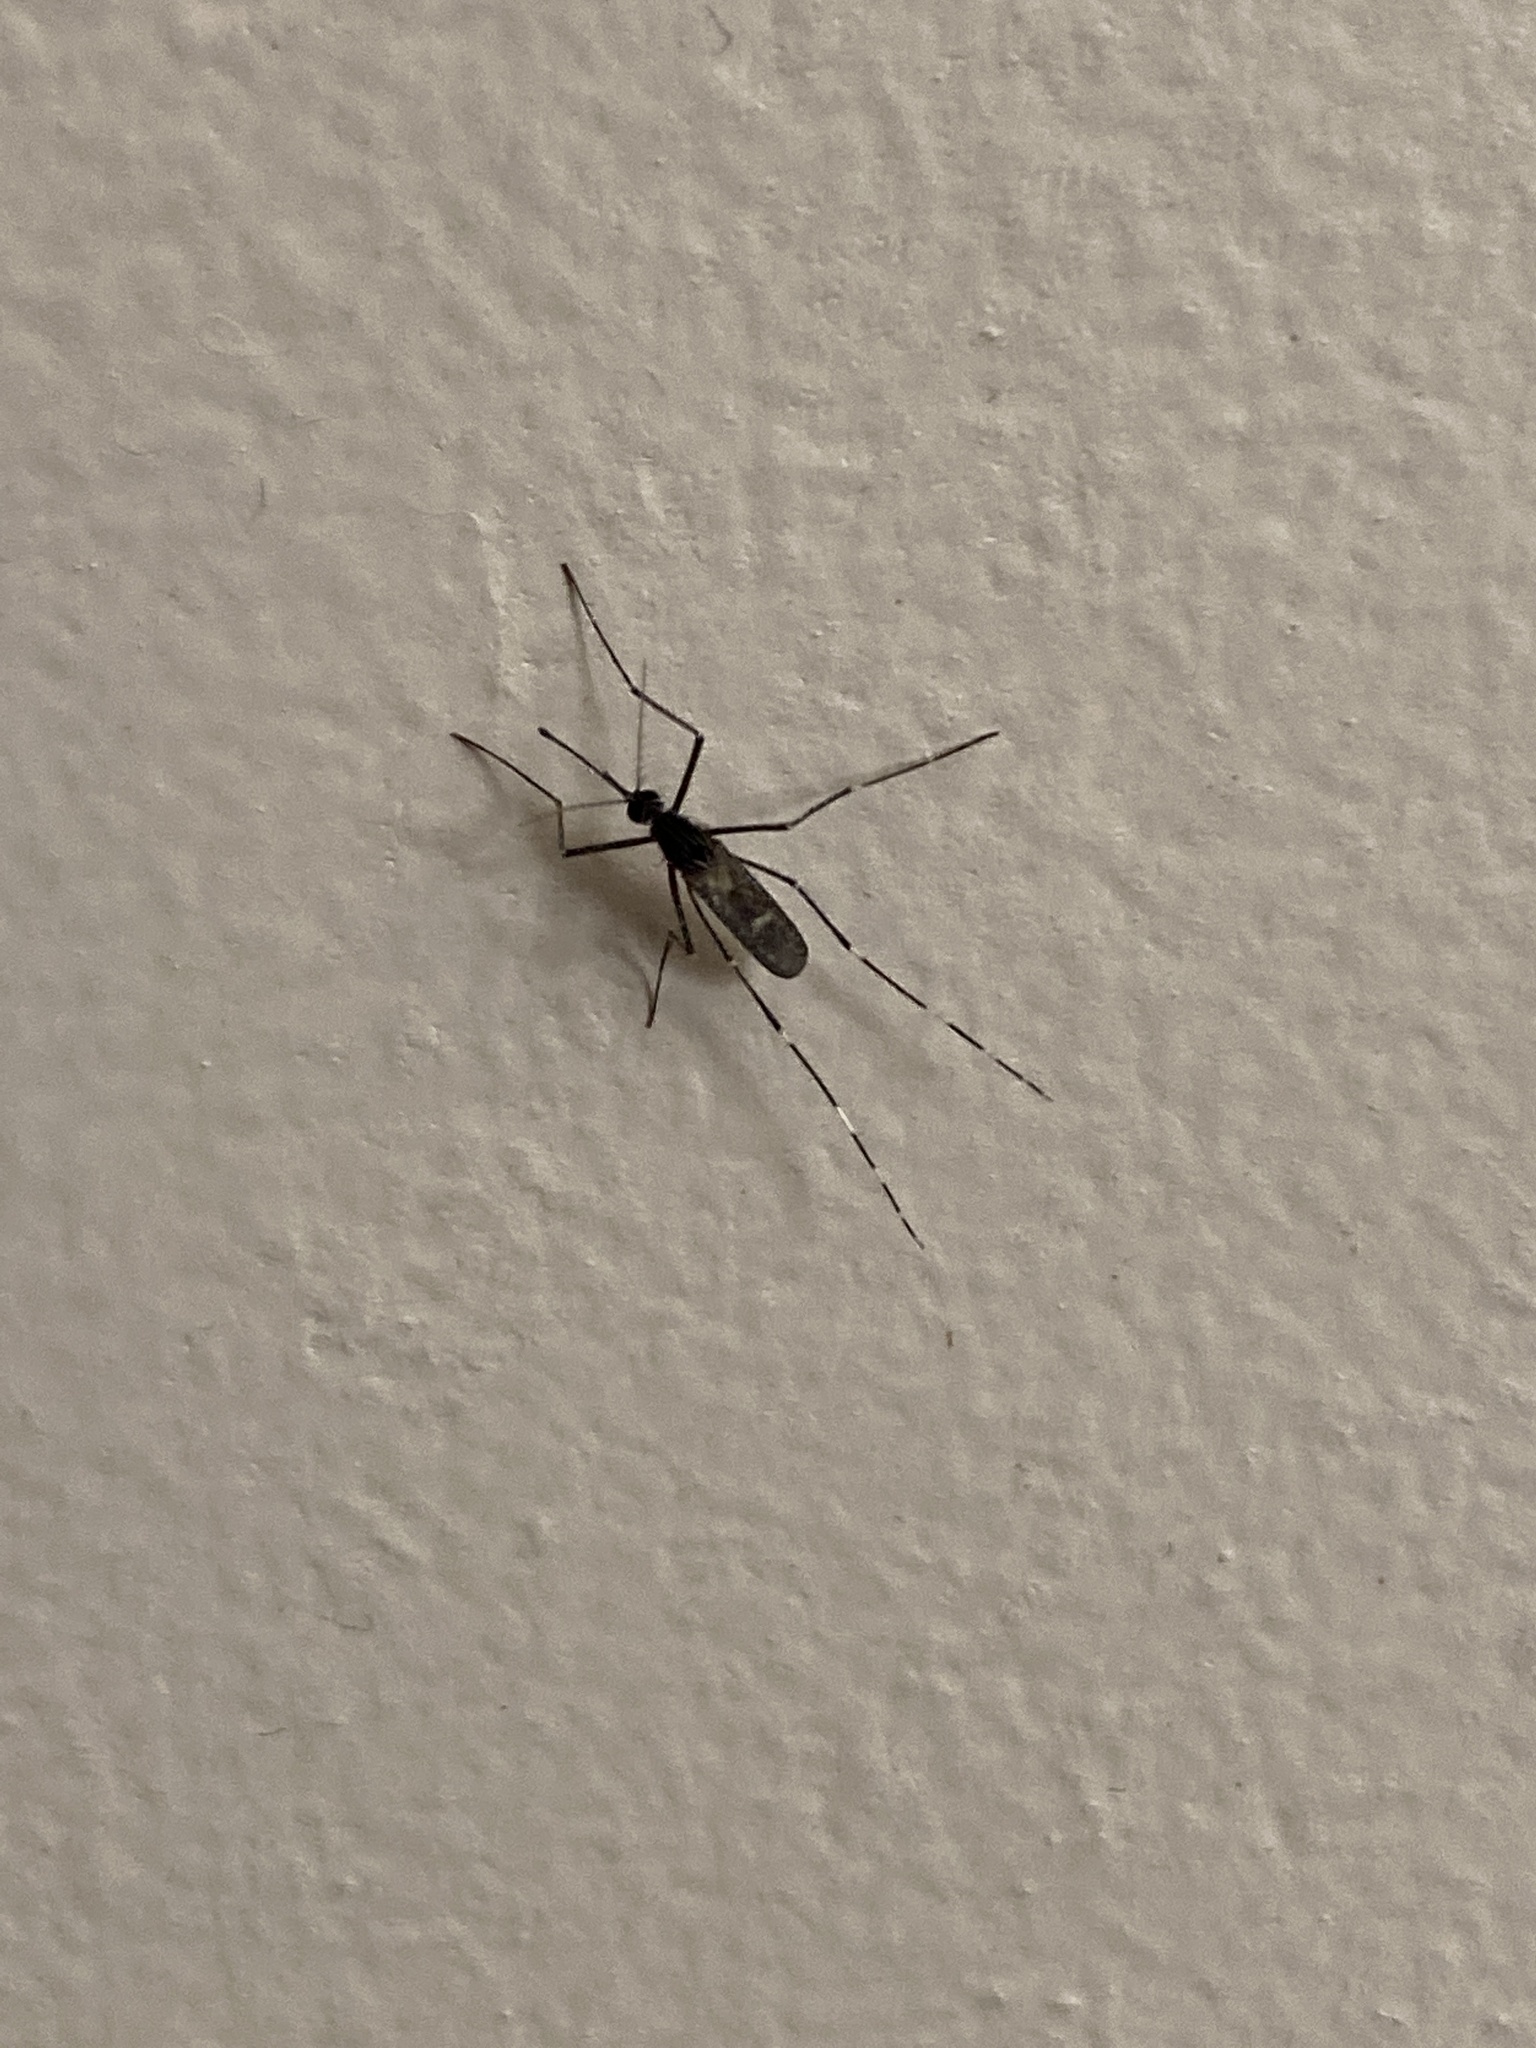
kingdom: Animalia
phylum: Arthropoda
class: Insecta
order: Diptera
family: Culicidae
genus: Orthopodomyia
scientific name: Orthopodomyia
